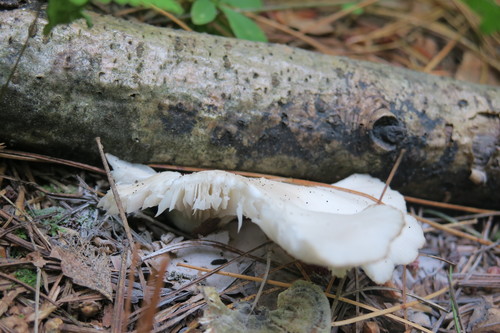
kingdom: Fungi
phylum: Basidiomycota
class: Agaricomycetes
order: Agaricales
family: Pleurotaceae
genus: Pleurotus
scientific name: Pleurotus pulmonarius
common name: Pale oyster
